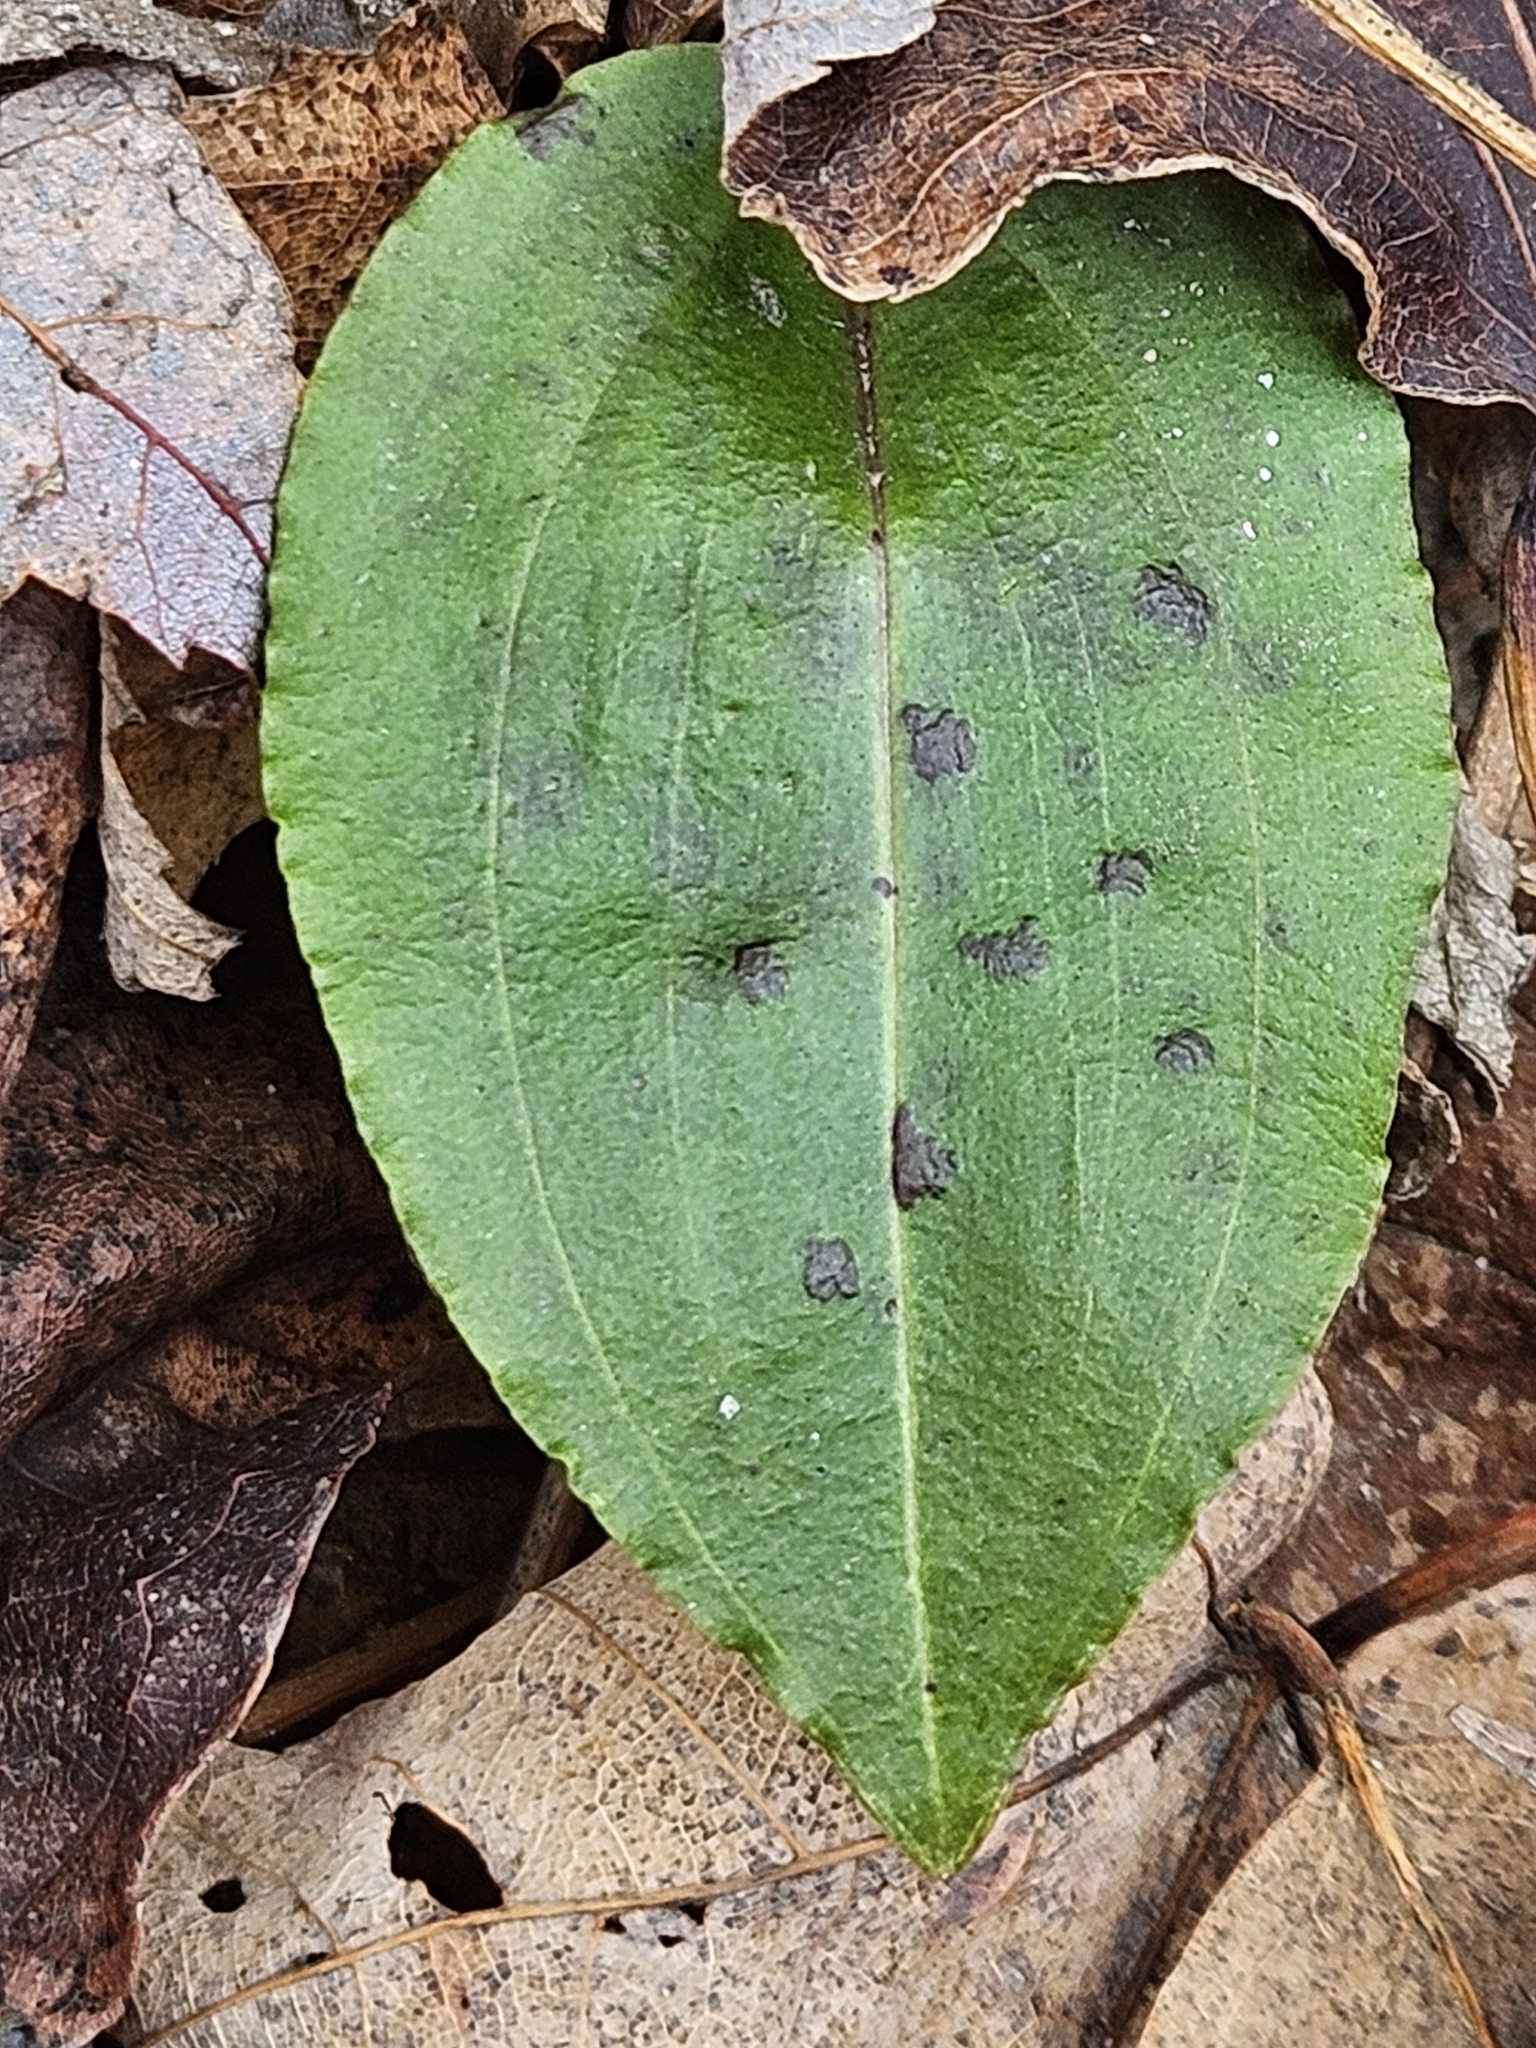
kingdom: Plantae
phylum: Tracheophyta
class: Liliopsida
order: Asparagales
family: Orchidaceae
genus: Tipularia
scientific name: Tipularia discolor
